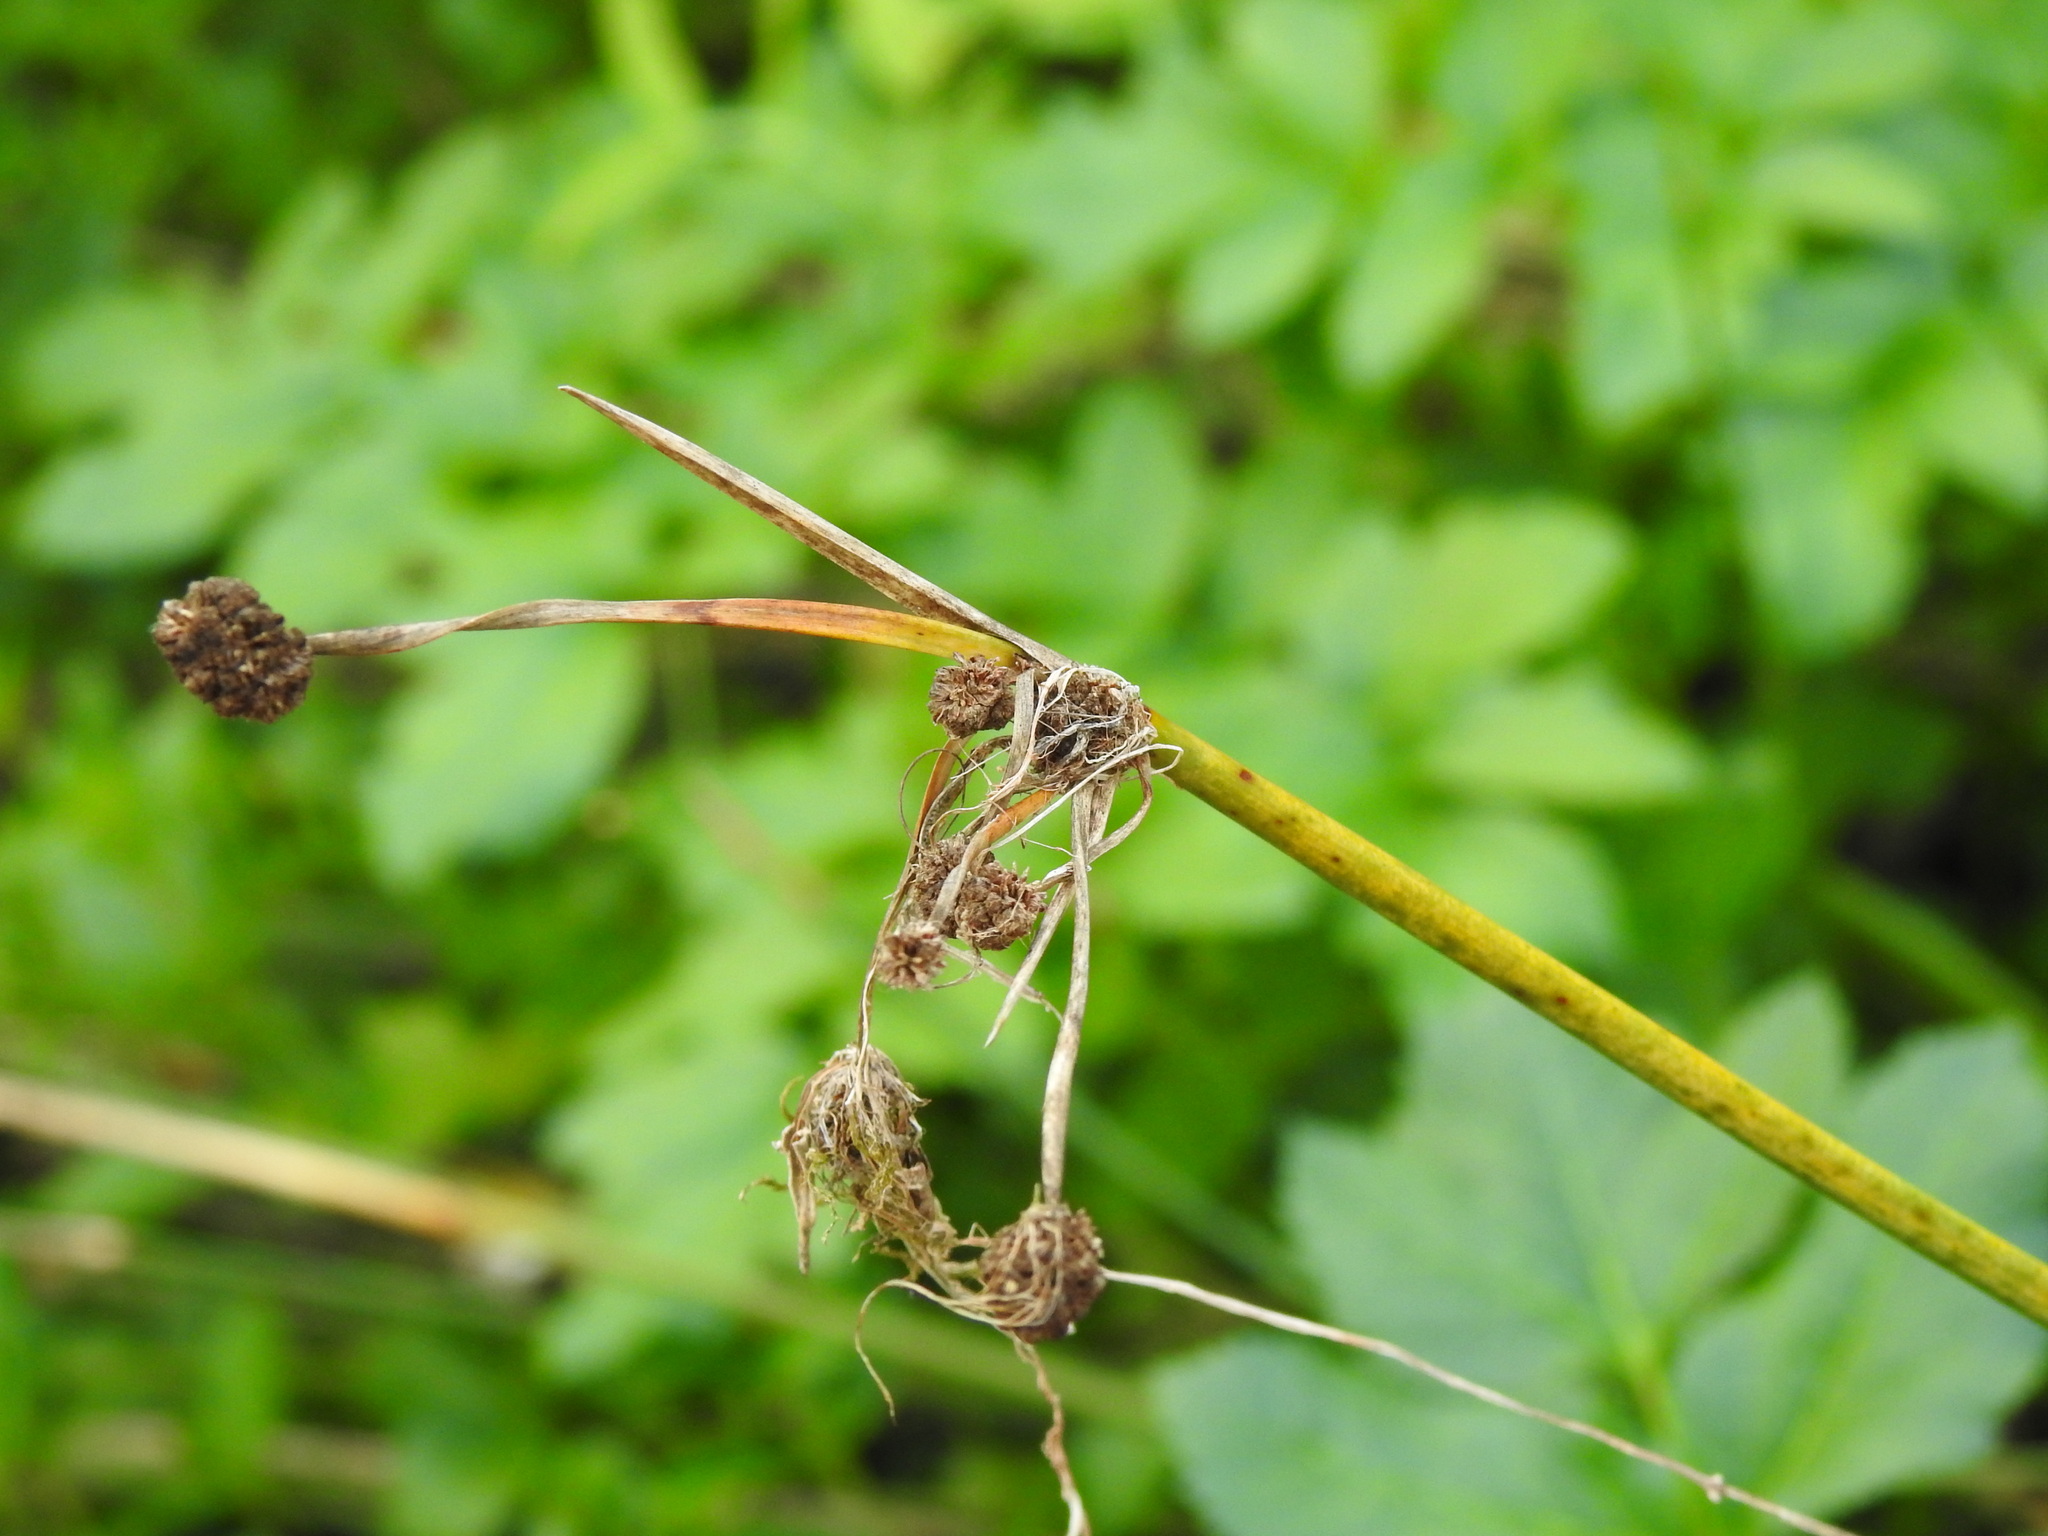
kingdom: Plantae
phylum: Tracheophyta
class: Liliopsida
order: Poales
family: Cyperaceae
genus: Scirpoides
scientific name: Scirpoides holoschoenus
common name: Round-headed club-rush
